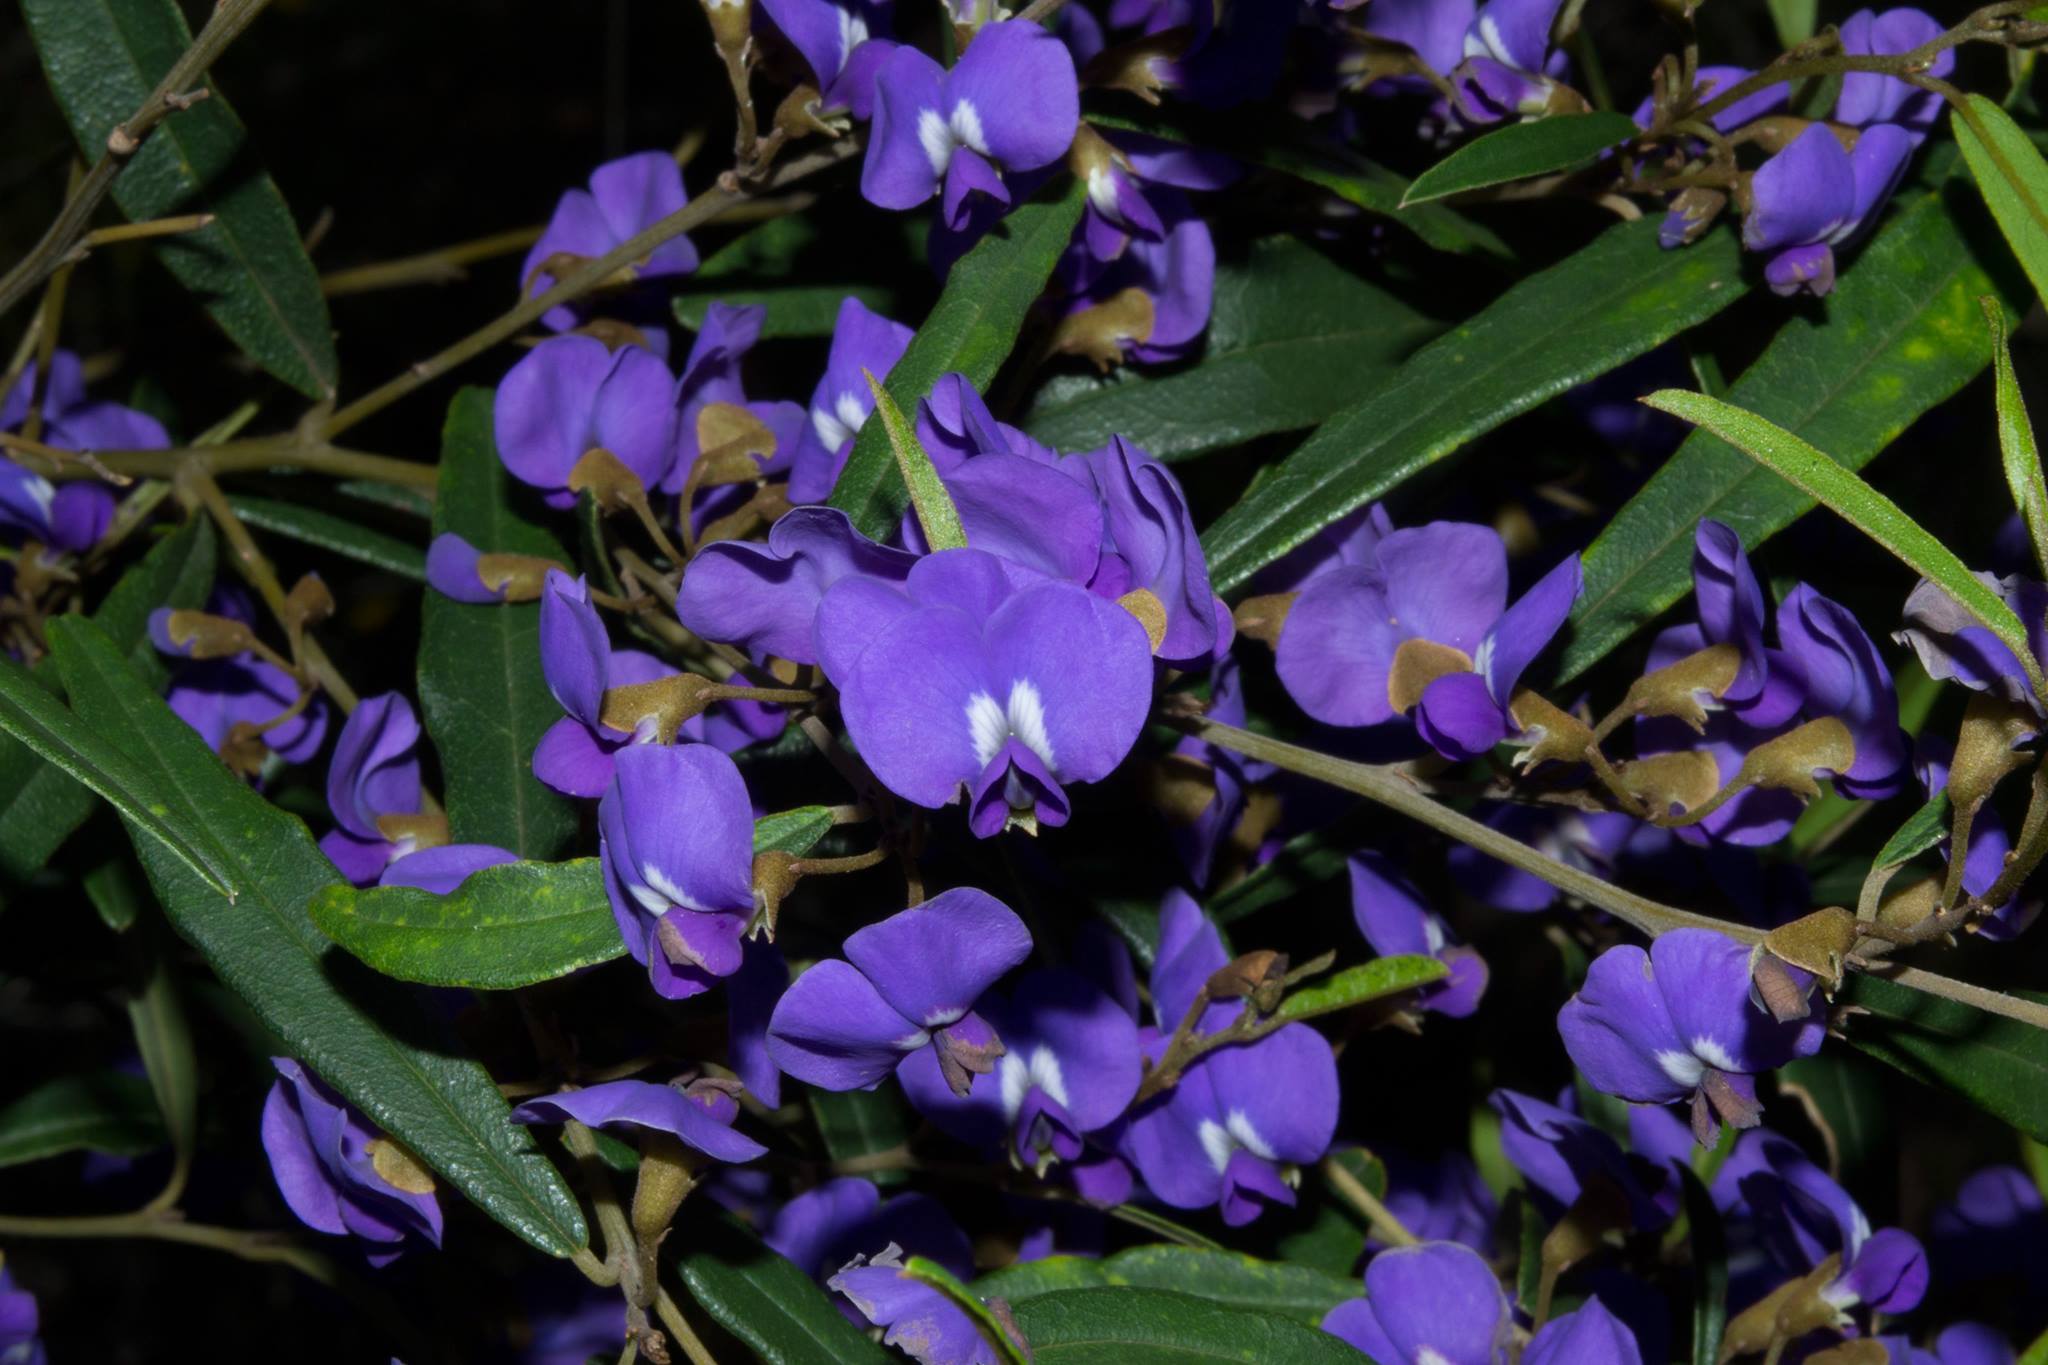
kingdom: Plantae
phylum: Tracheophyta
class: Magnoliopsida
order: Fabales
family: Fabaceae
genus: Hovea
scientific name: Hovea elliptica
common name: Tree hovea
